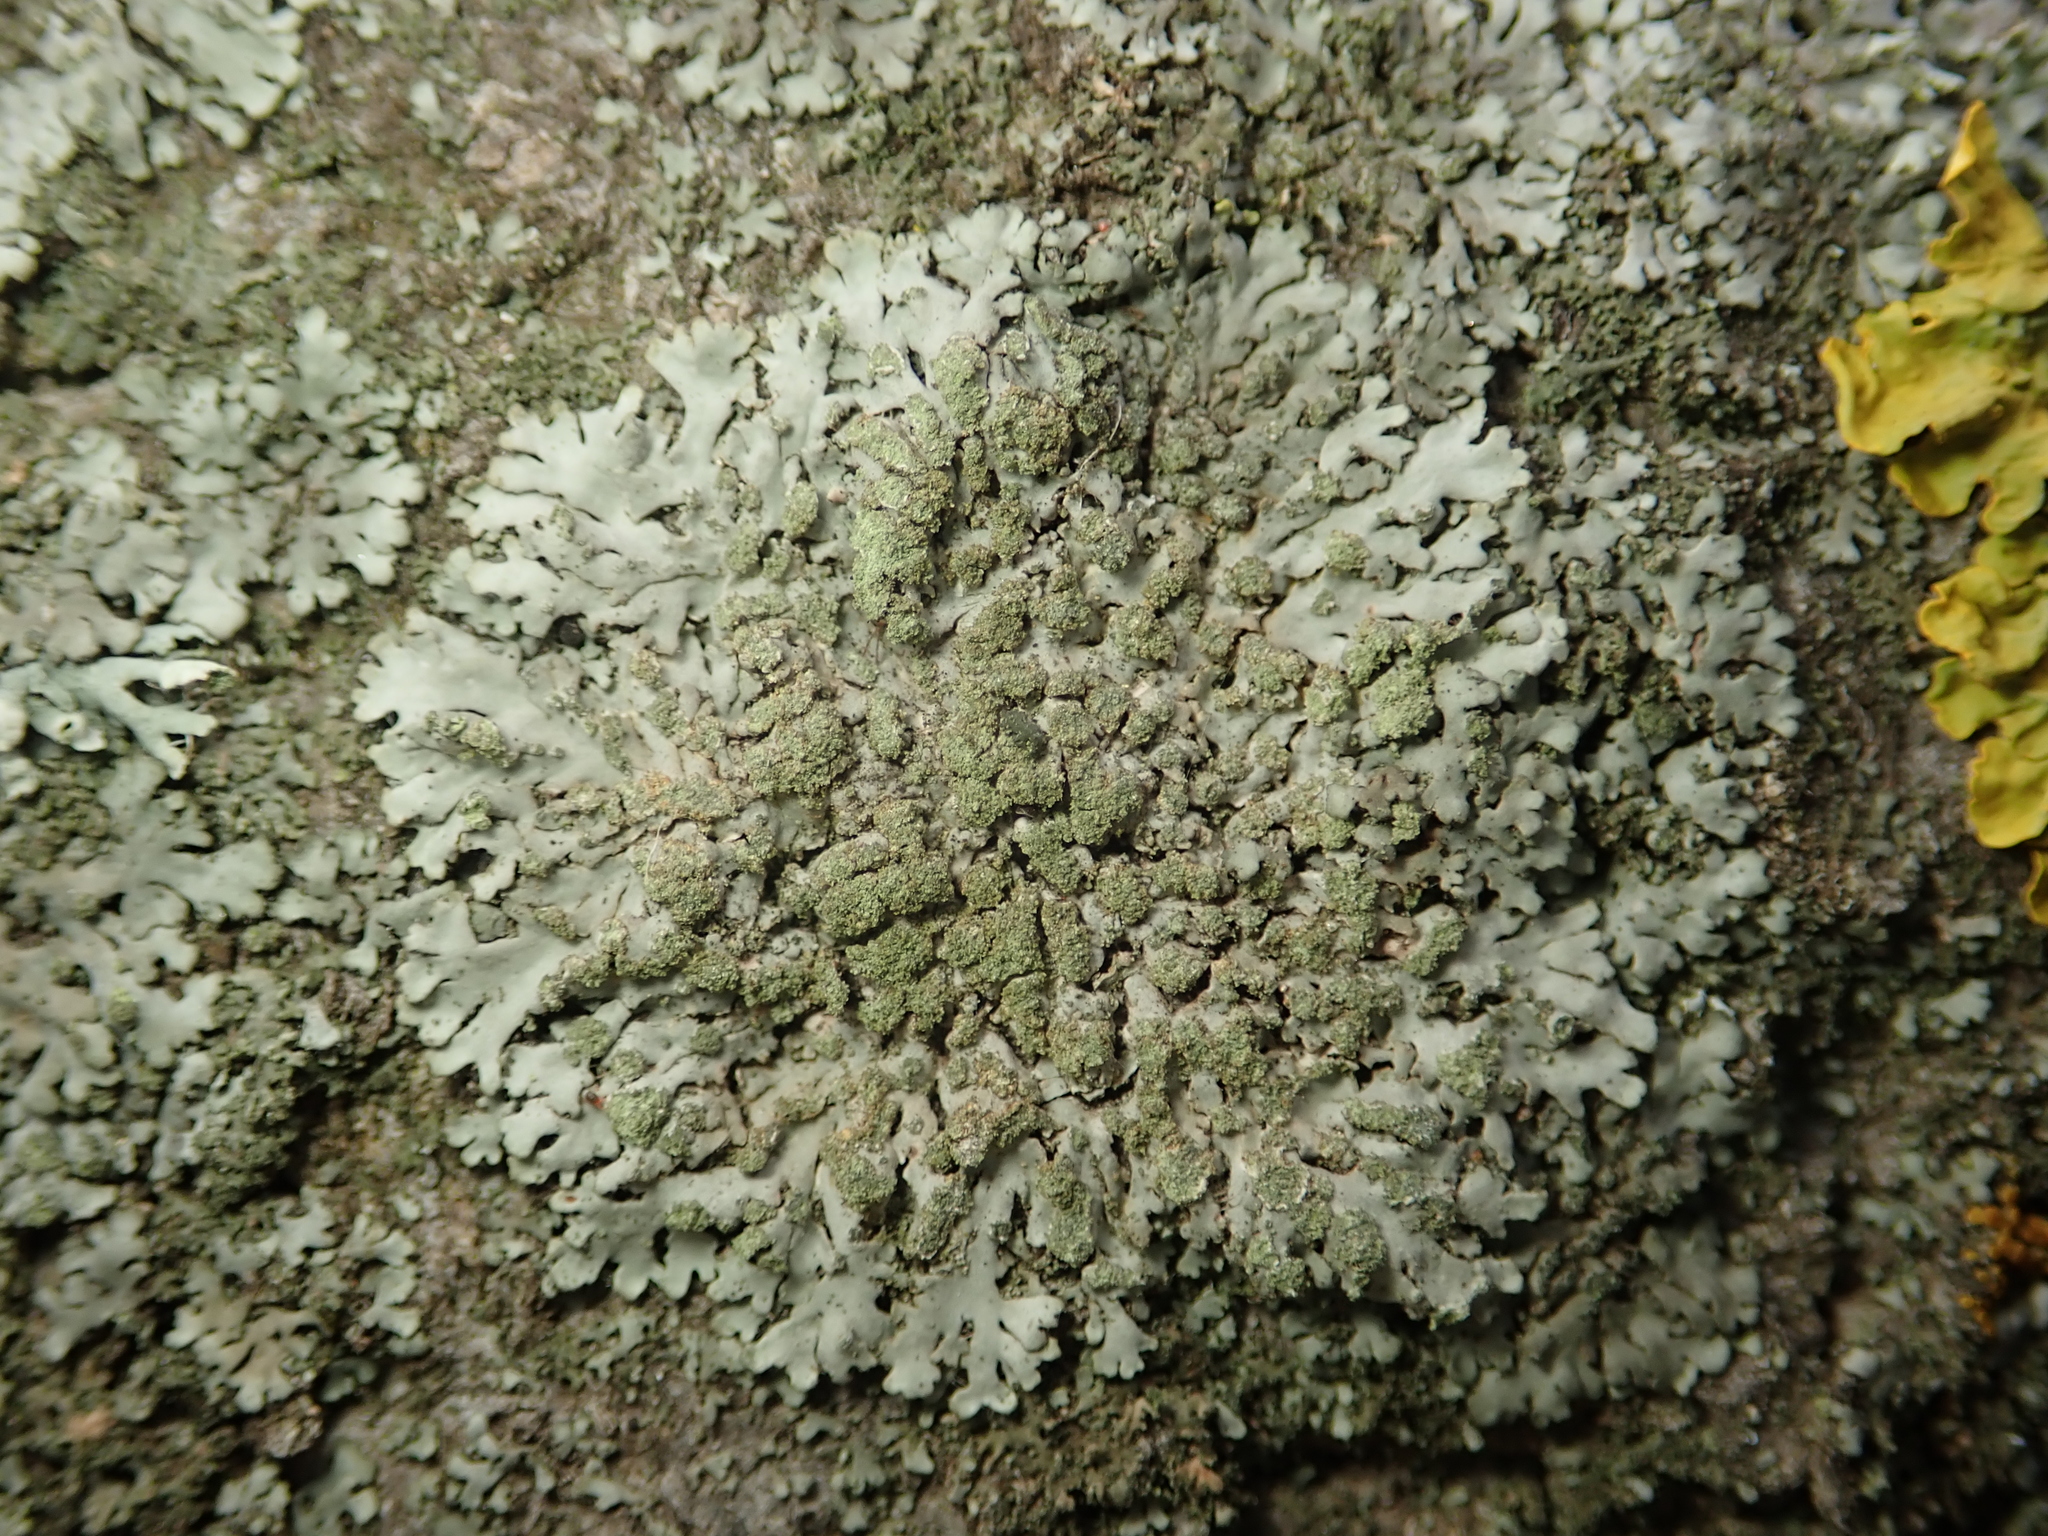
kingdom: Fungi
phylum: Ascomycota
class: Lecanoromycetes
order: Caliciales
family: Physciaceae
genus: Phaeophyscia
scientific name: Phaeophyscia orbicularis
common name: Mealy shadow lichen
